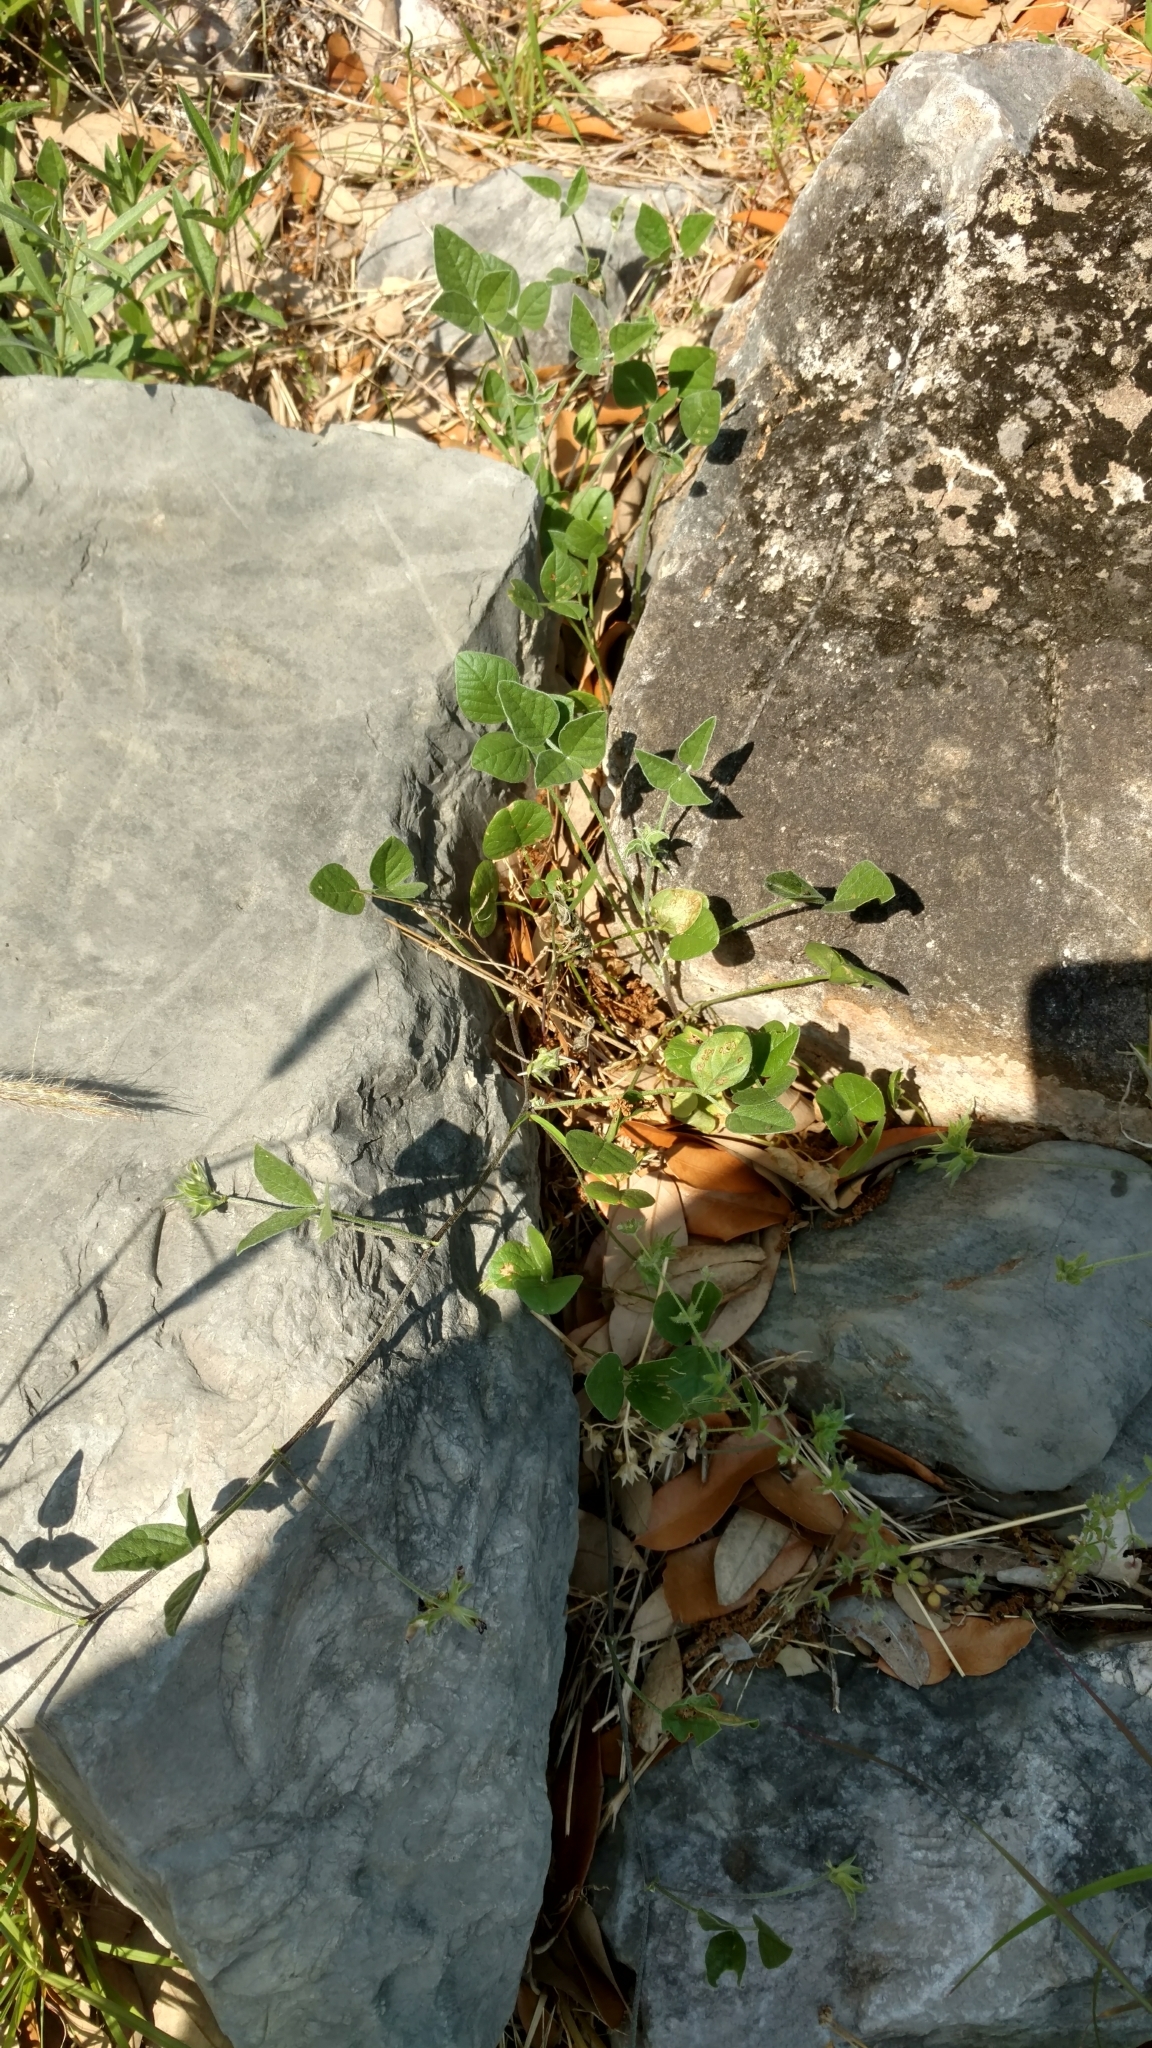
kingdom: Plantae
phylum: Tracheophyta
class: Magnoliopsida
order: Fabales
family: Fabaceae
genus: Pediomelum
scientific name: Pediomelum rhombifolium
